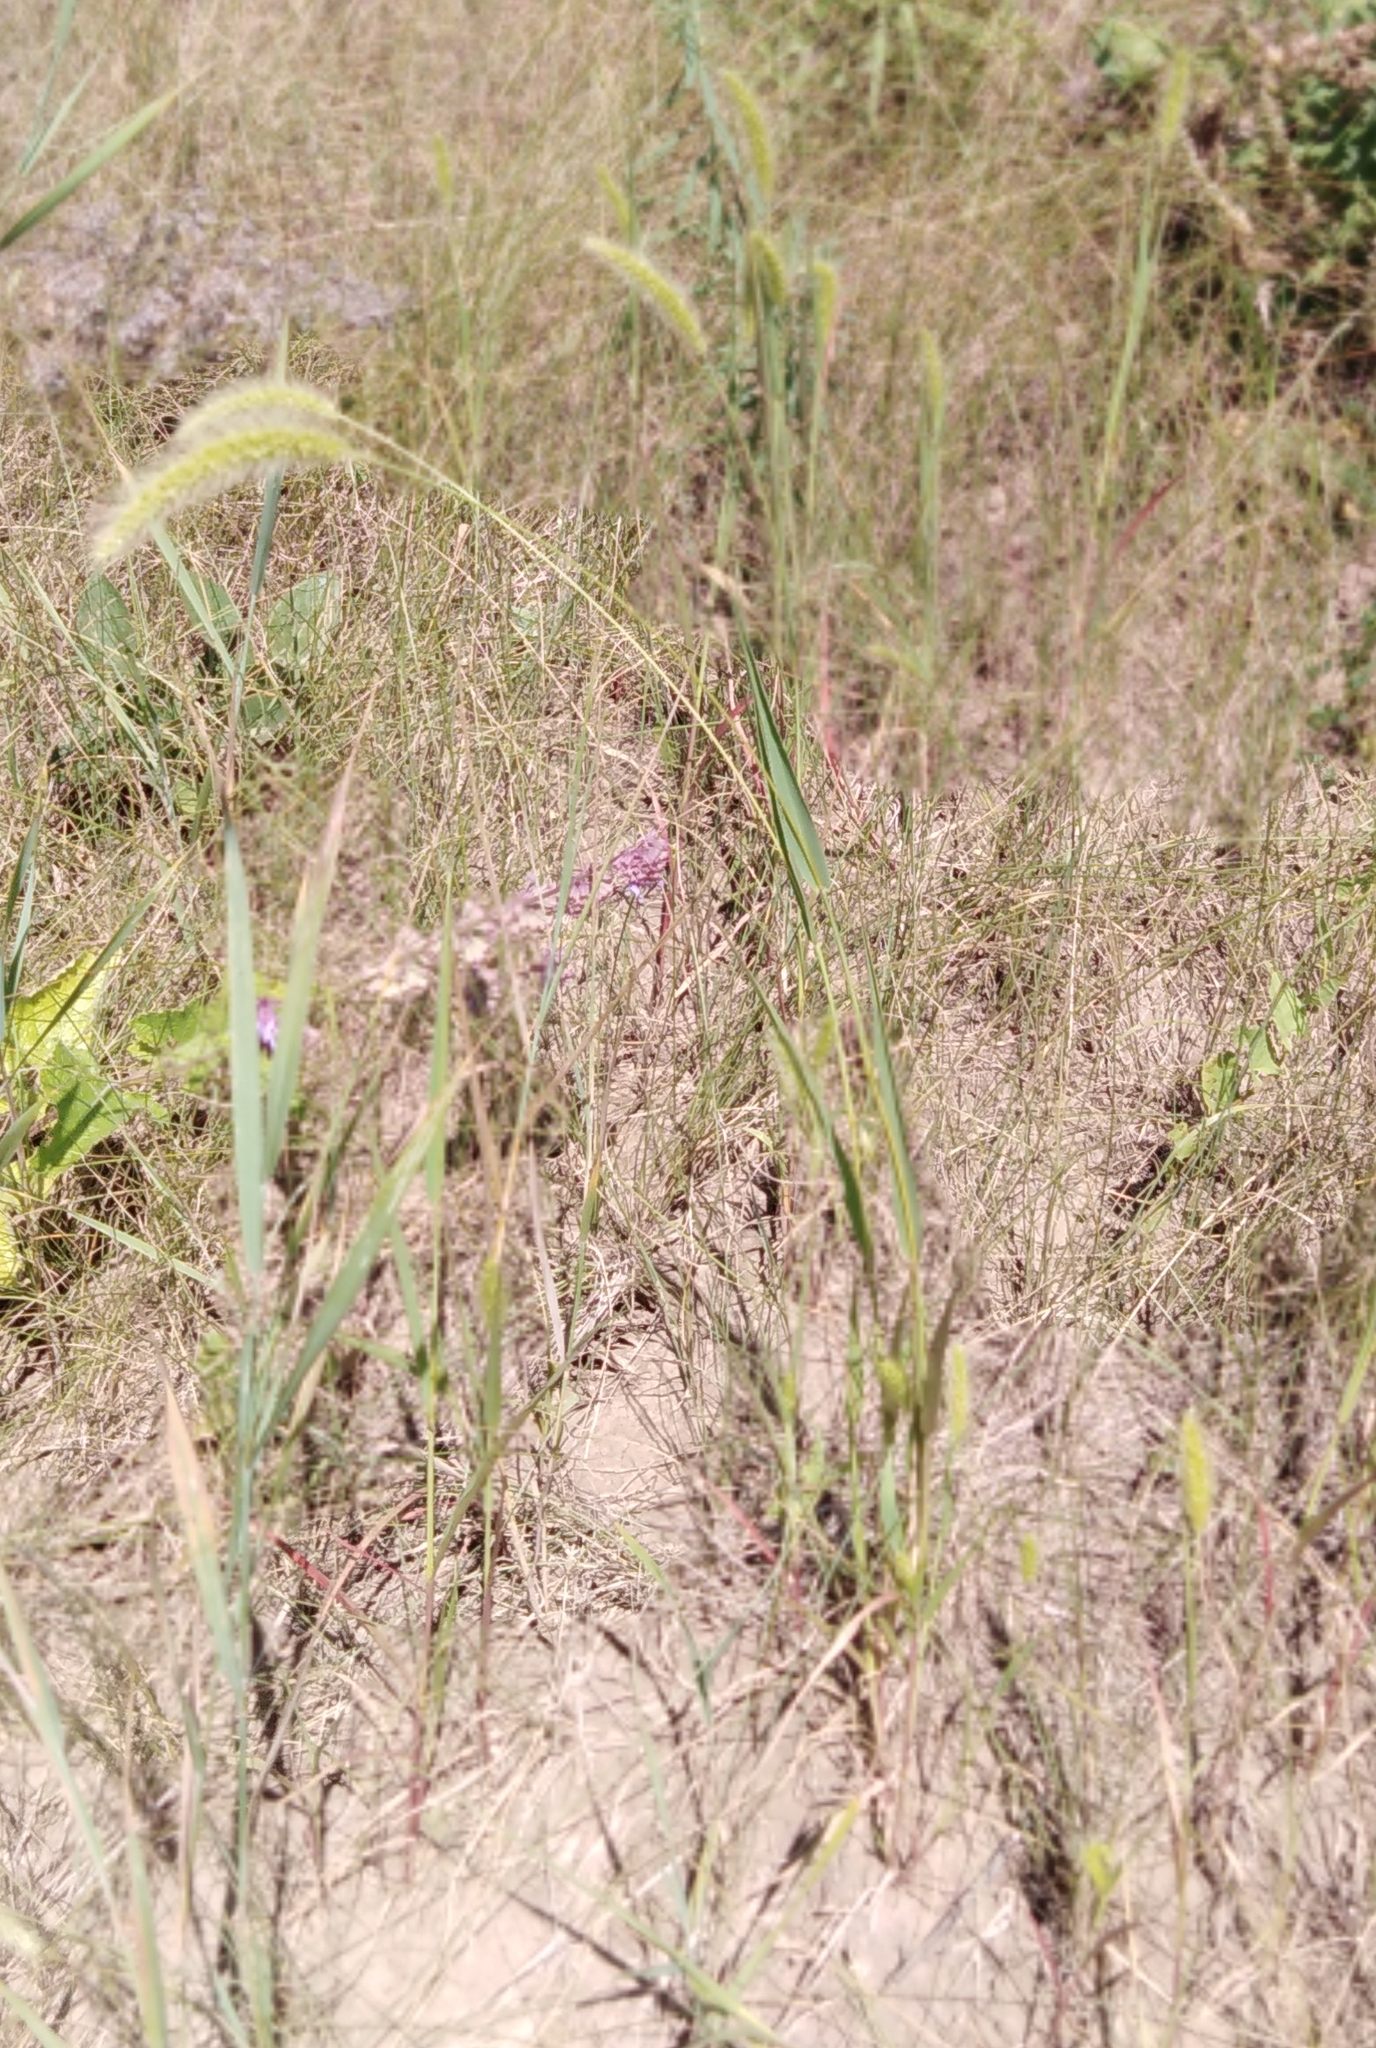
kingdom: Plantae
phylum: Tracheophyta
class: Liliopsida
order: Poales
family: Poaceae
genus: Setaria
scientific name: Setaria viridis
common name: Green bristlegrass
